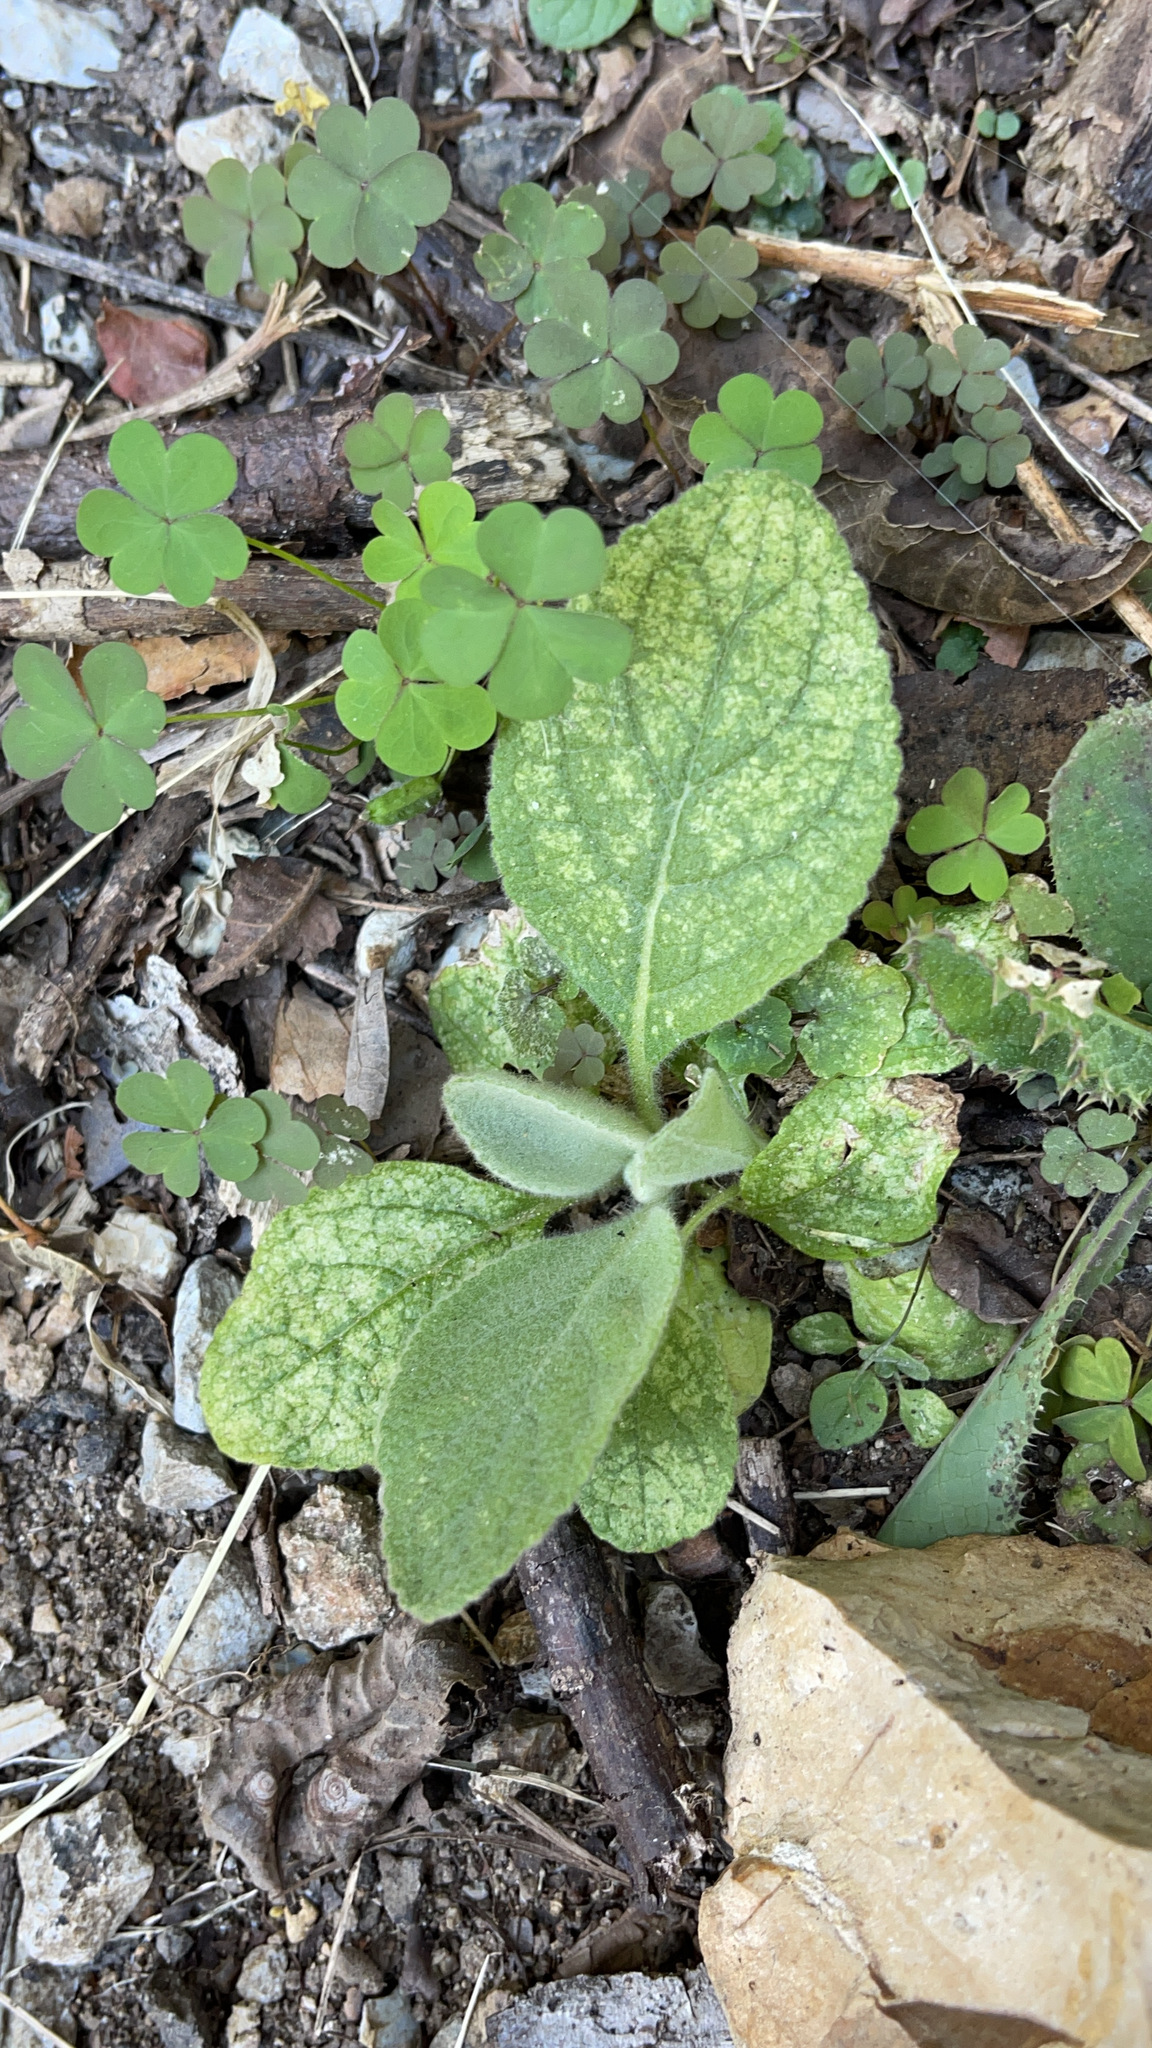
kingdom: Plantae
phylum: Tracheophyta
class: Magnoliopsida
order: Lamiales
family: Scrophulariaceae
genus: Verbascum
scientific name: Verbascum thapsus
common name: Common mullein
